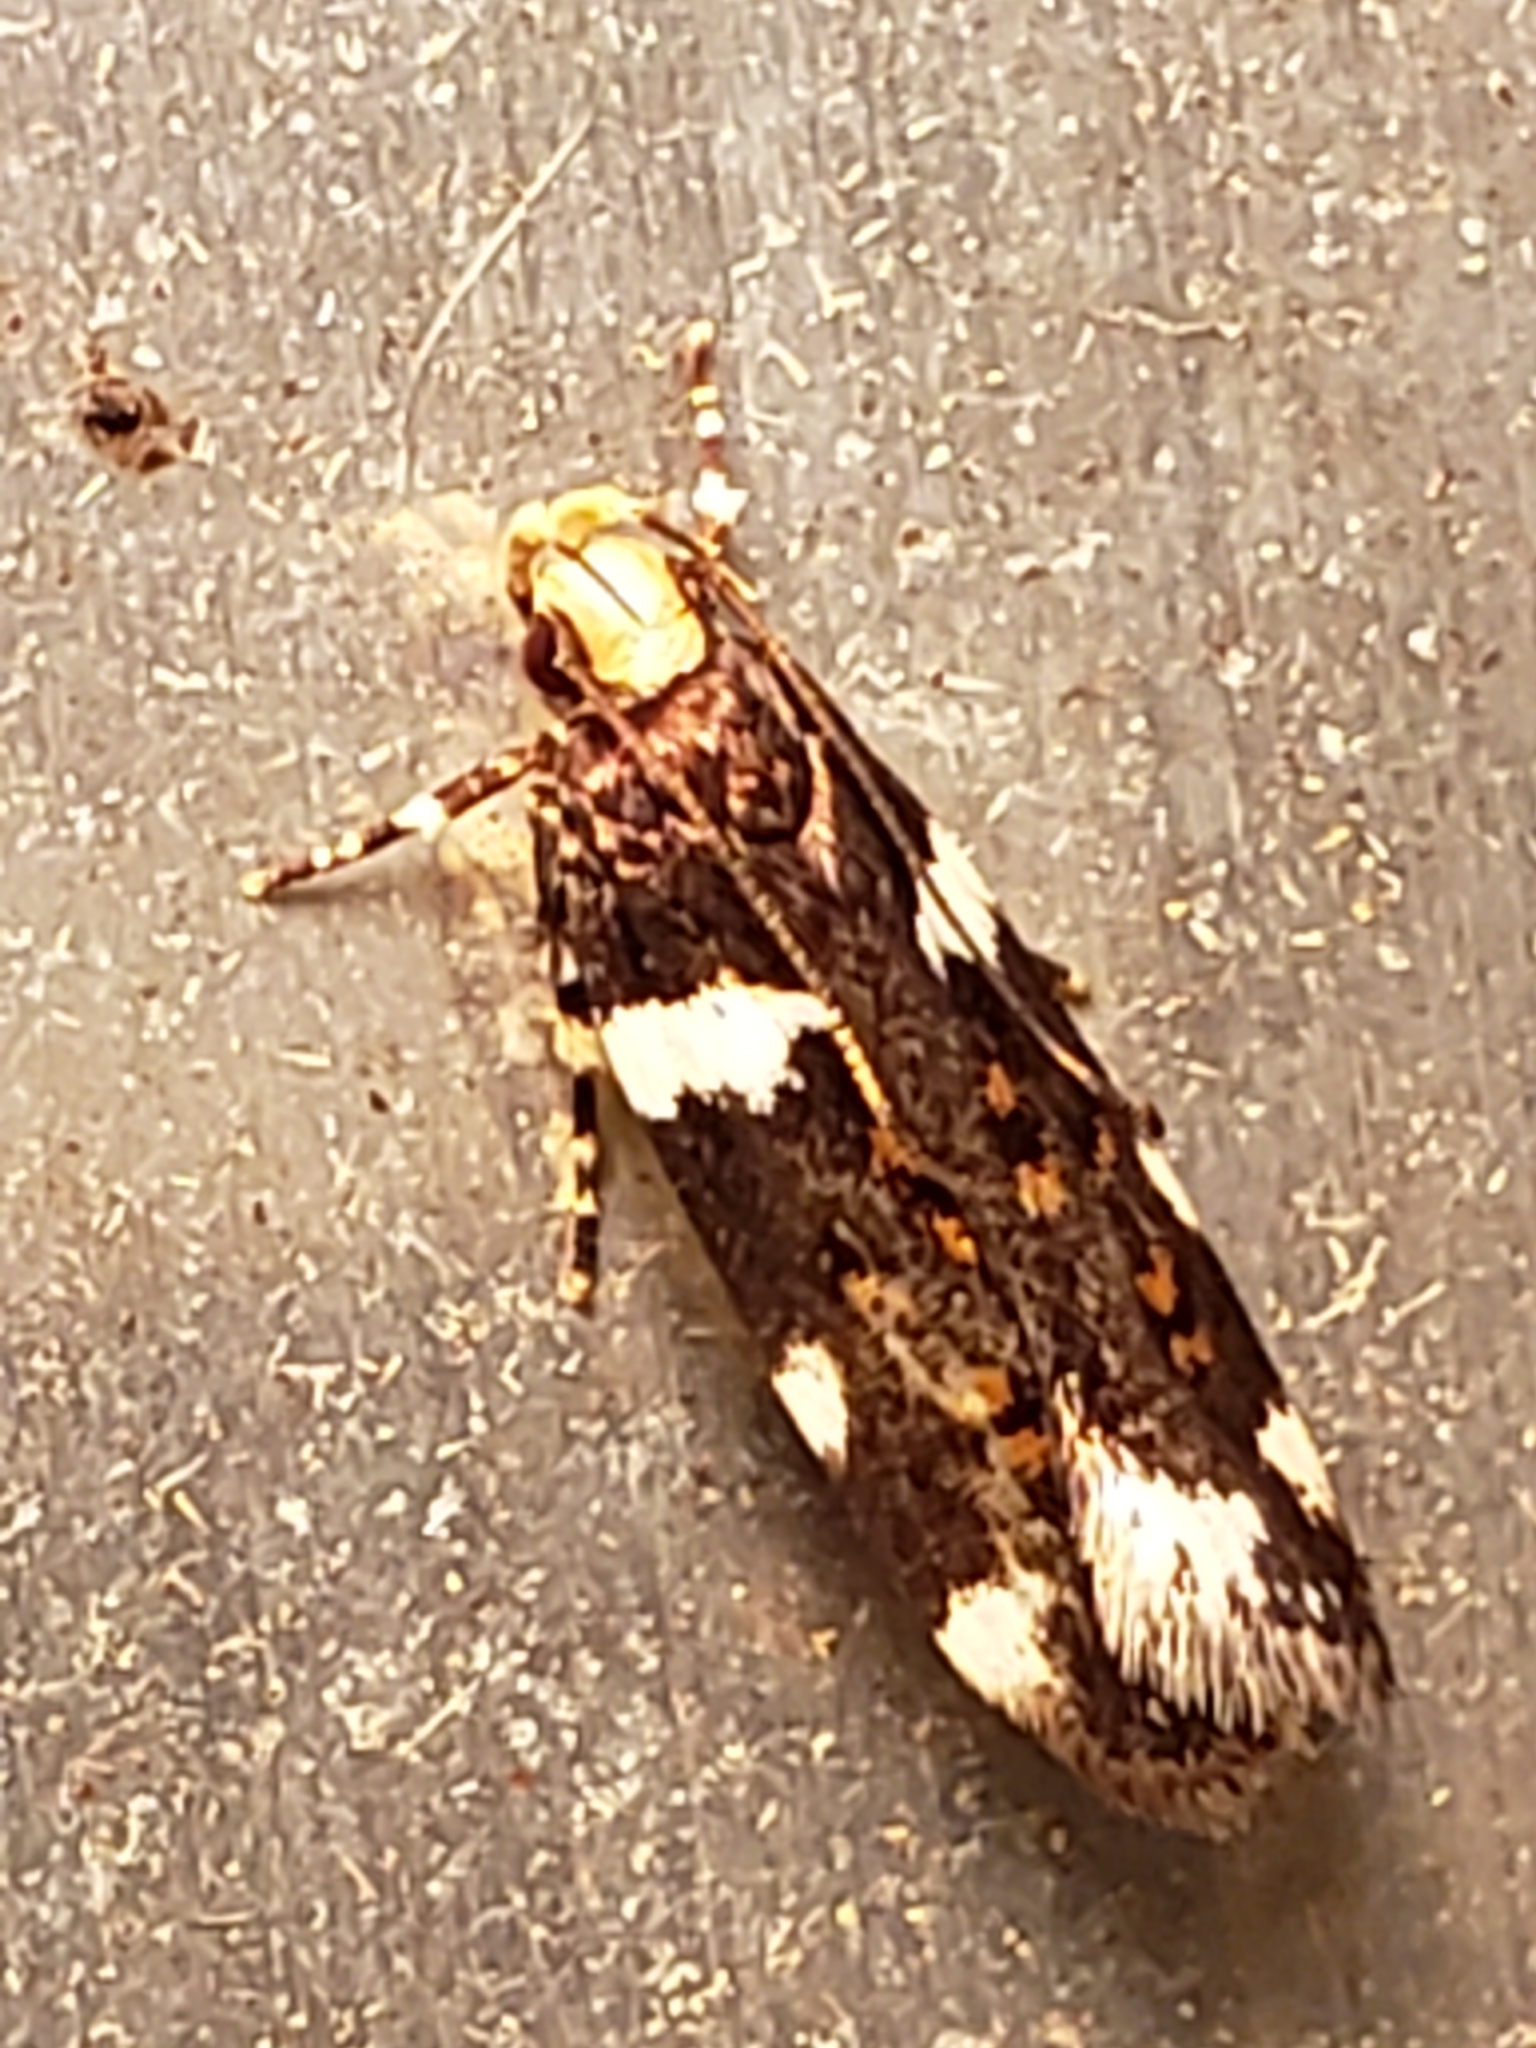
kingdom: Animalia
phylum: Arthropoda
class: Insecta
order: Lepidoptera
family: Gelechiidae
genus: Fascista
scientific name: Fascista cercerisella
